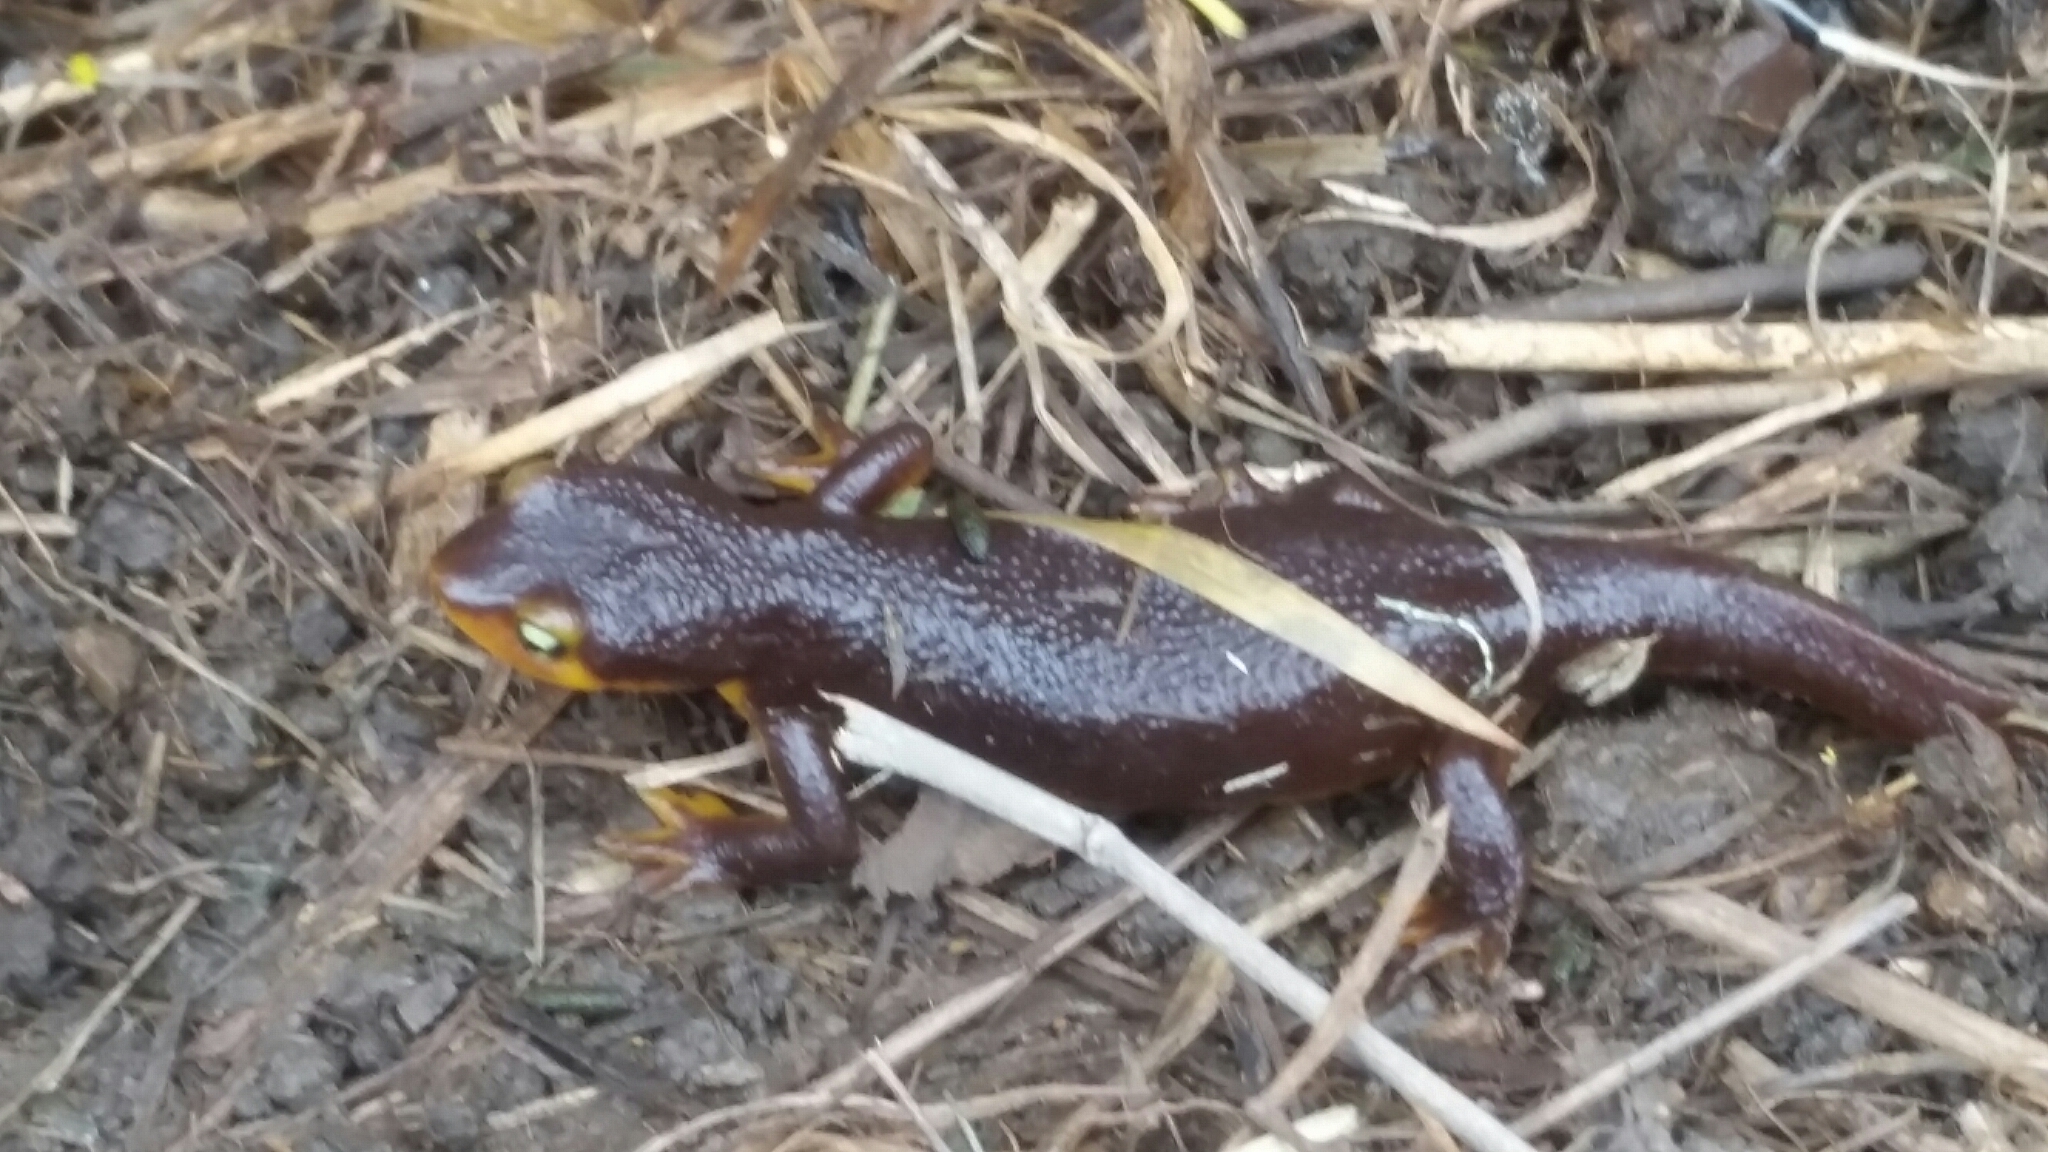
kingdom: Animalia
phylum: Chordata
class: Amphibia
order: Caudata
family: Salamandridae
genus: Taricha
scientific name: Taricha torosa
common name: California newt
